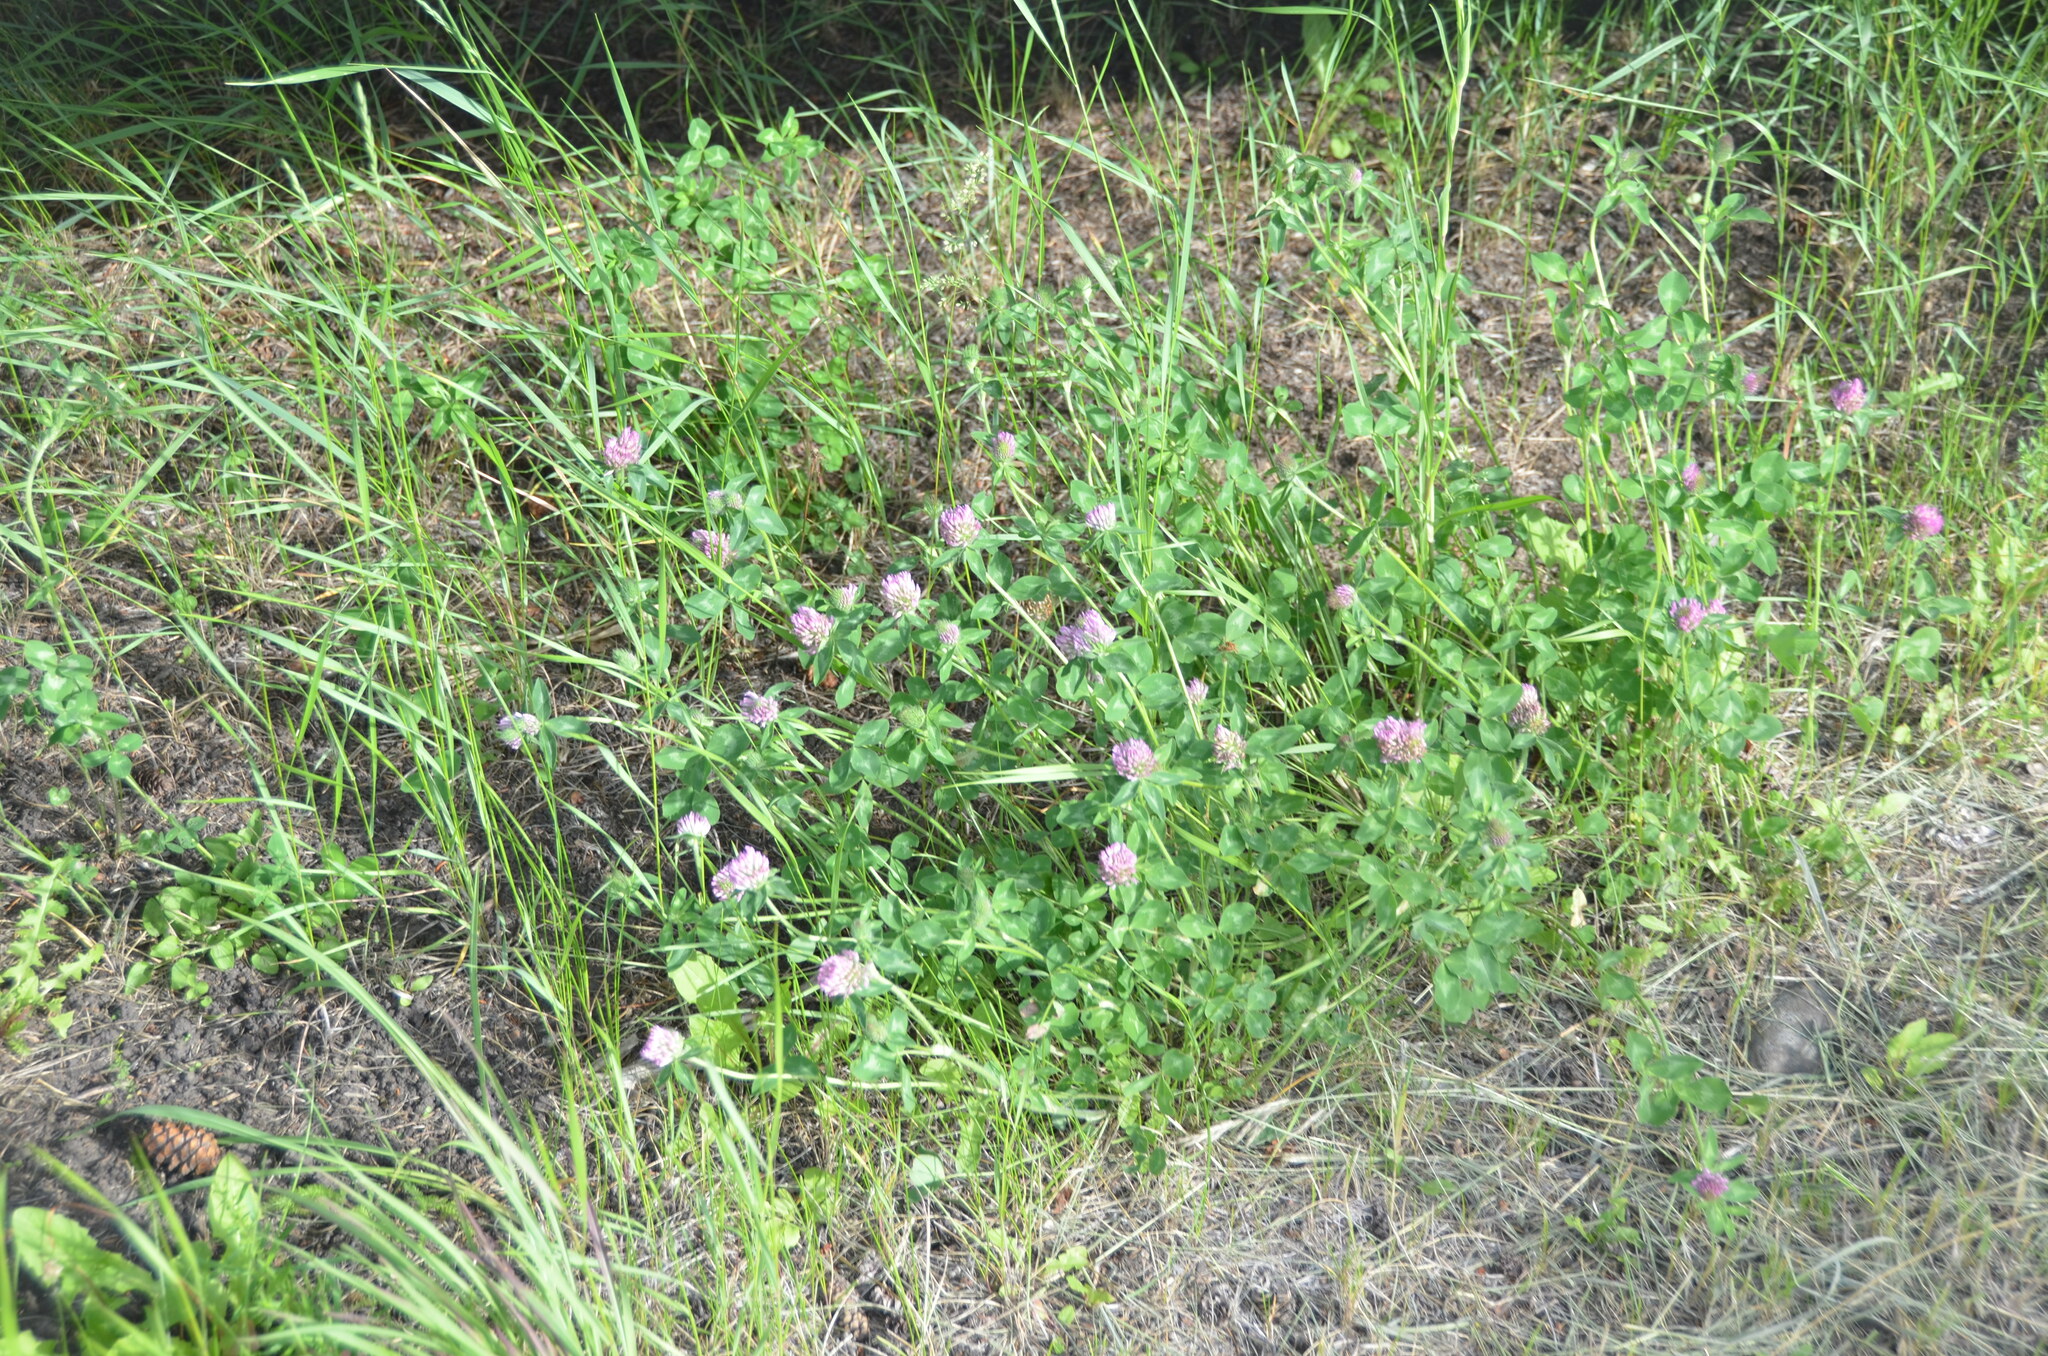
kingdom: Plantae
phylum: Tracheophyta
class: Magnoliopsida
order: Fabales
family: Fabaceae
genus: Trifolium
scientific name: Trifolium pratense
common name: Red clover
